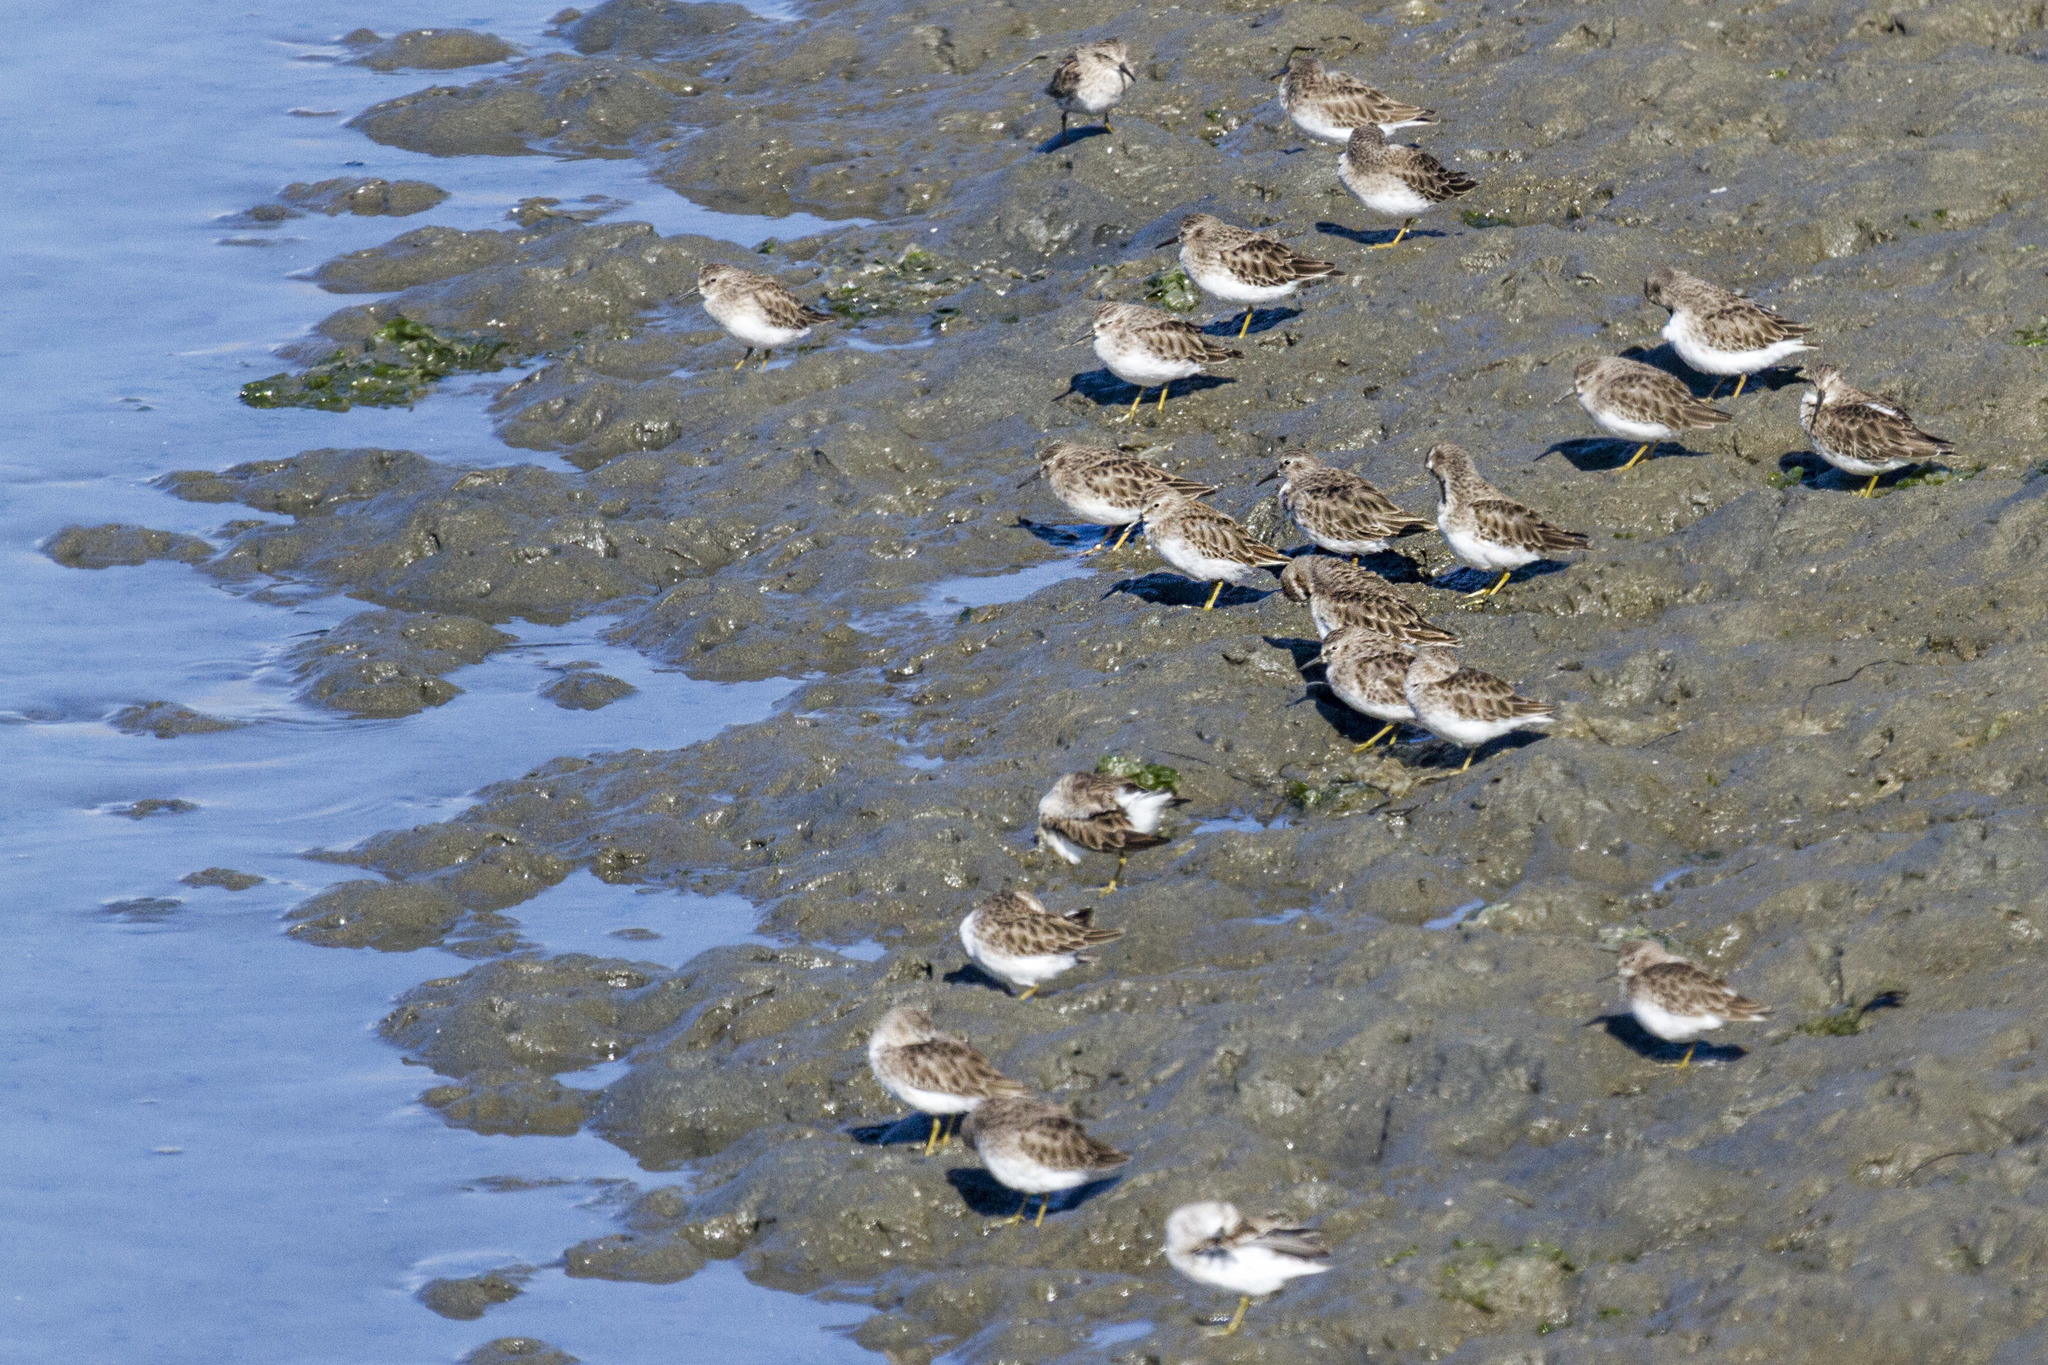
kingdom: Animalia
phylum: Chordata
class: Aves
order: Charadriiformes
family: Scolopacidae
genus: Calidris
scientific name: Calidris minutilla
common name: Least sandpiper
